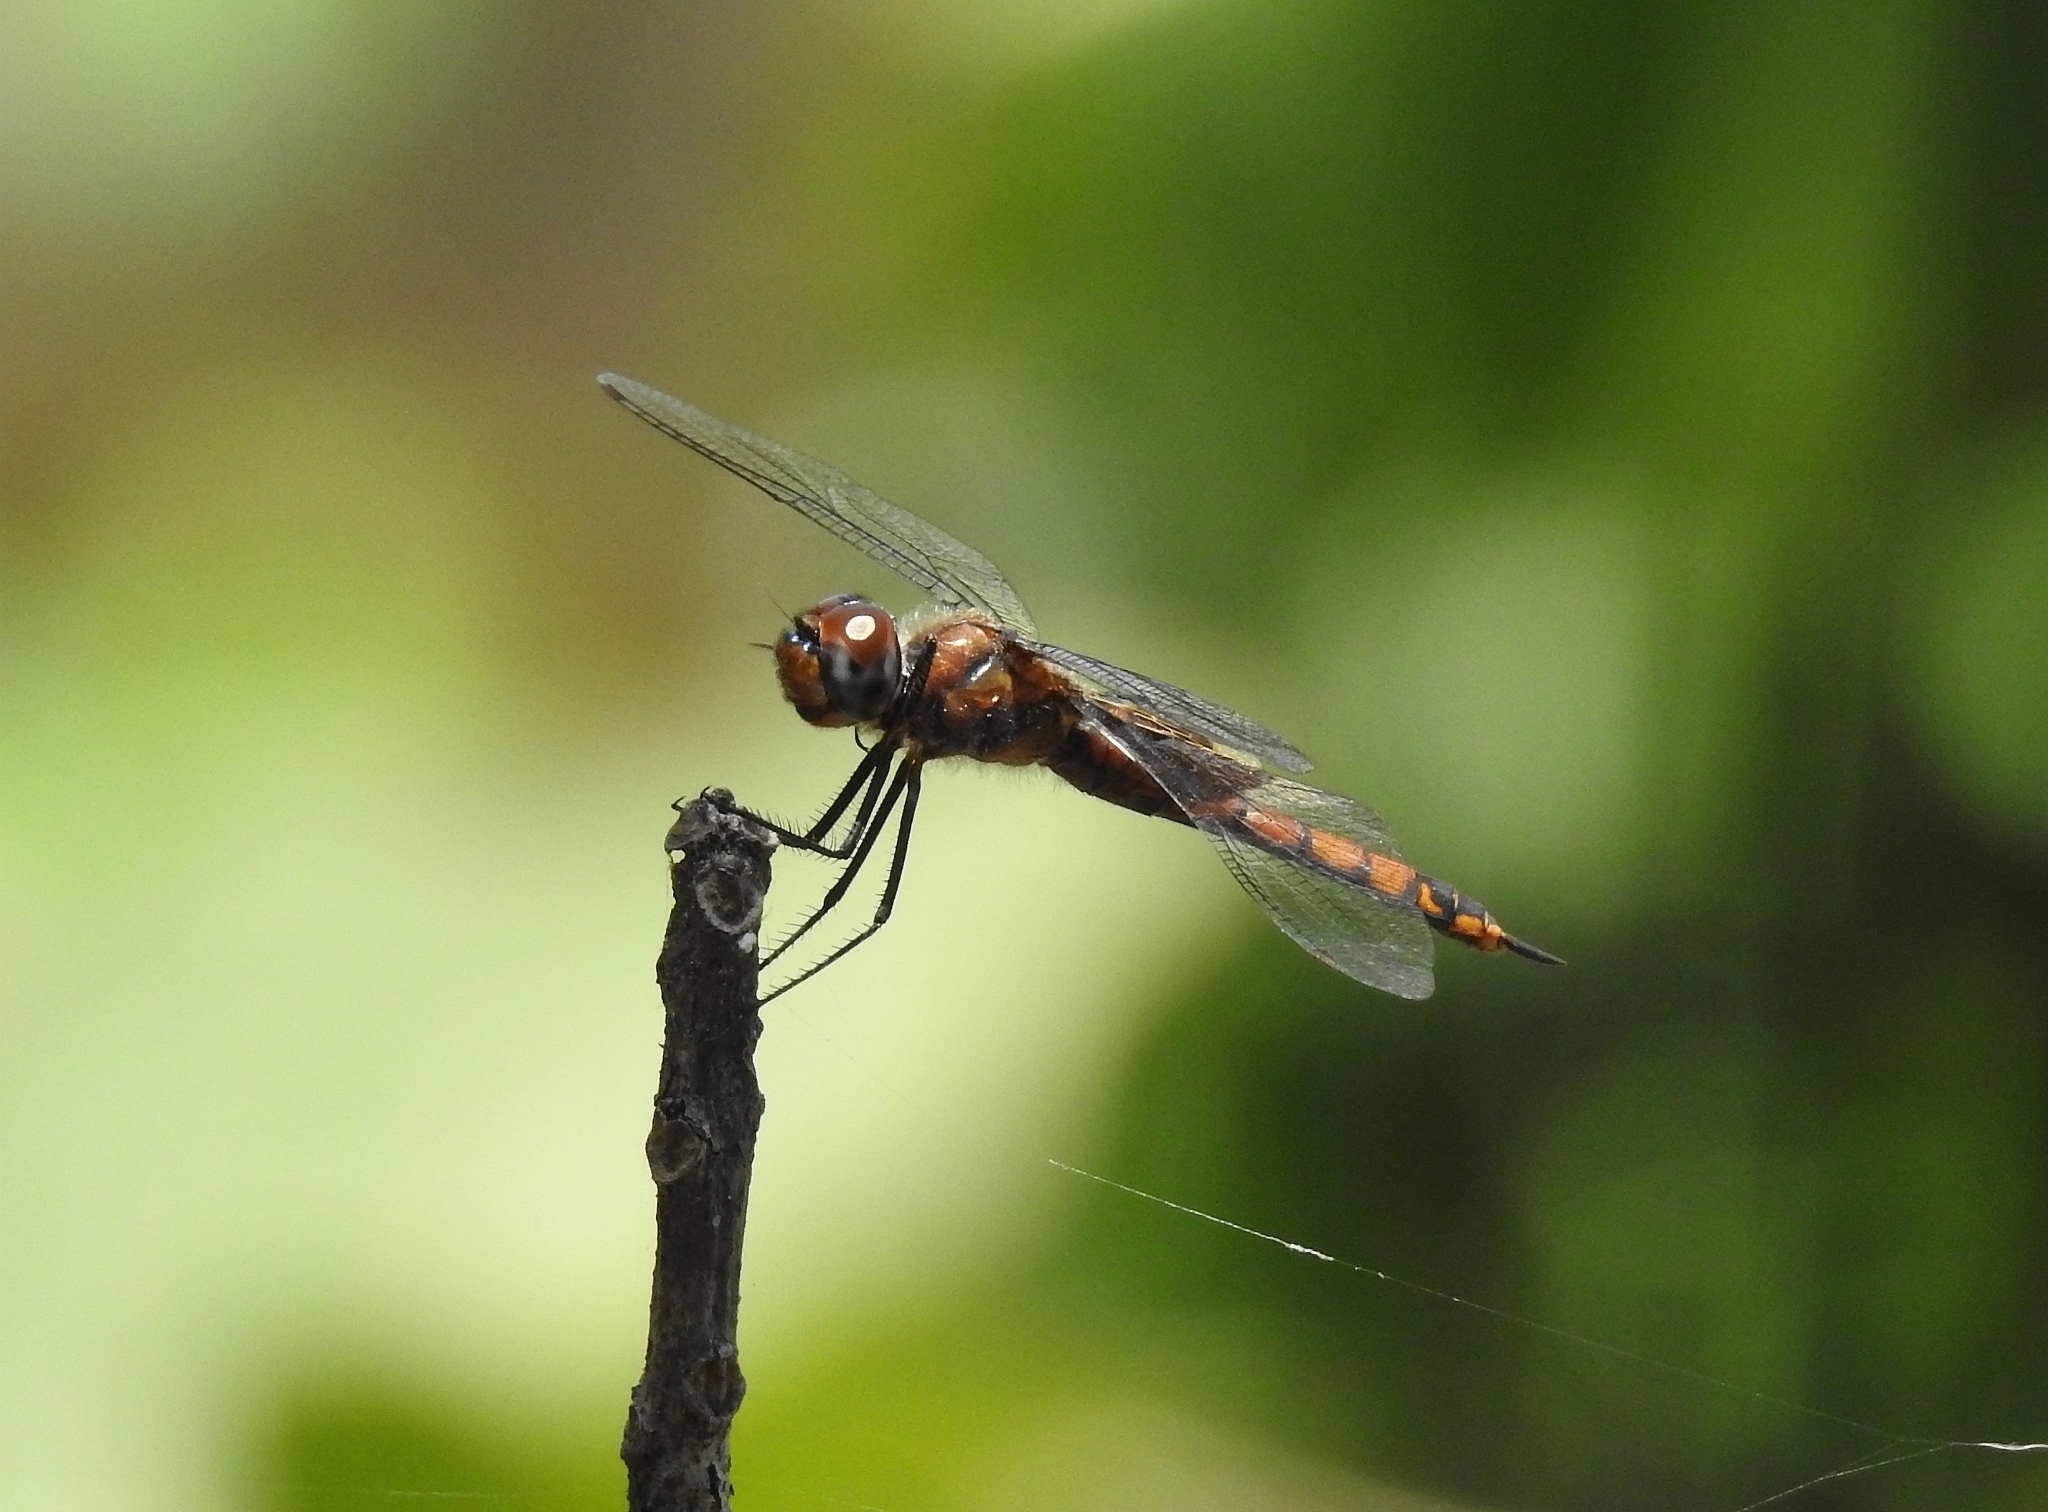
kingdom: Animalia
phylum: Arthropoda
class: Insecta
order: Odonata
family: Libellulidae
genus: Tramea
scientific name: Tramea limbata
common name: Ferruginous glider
